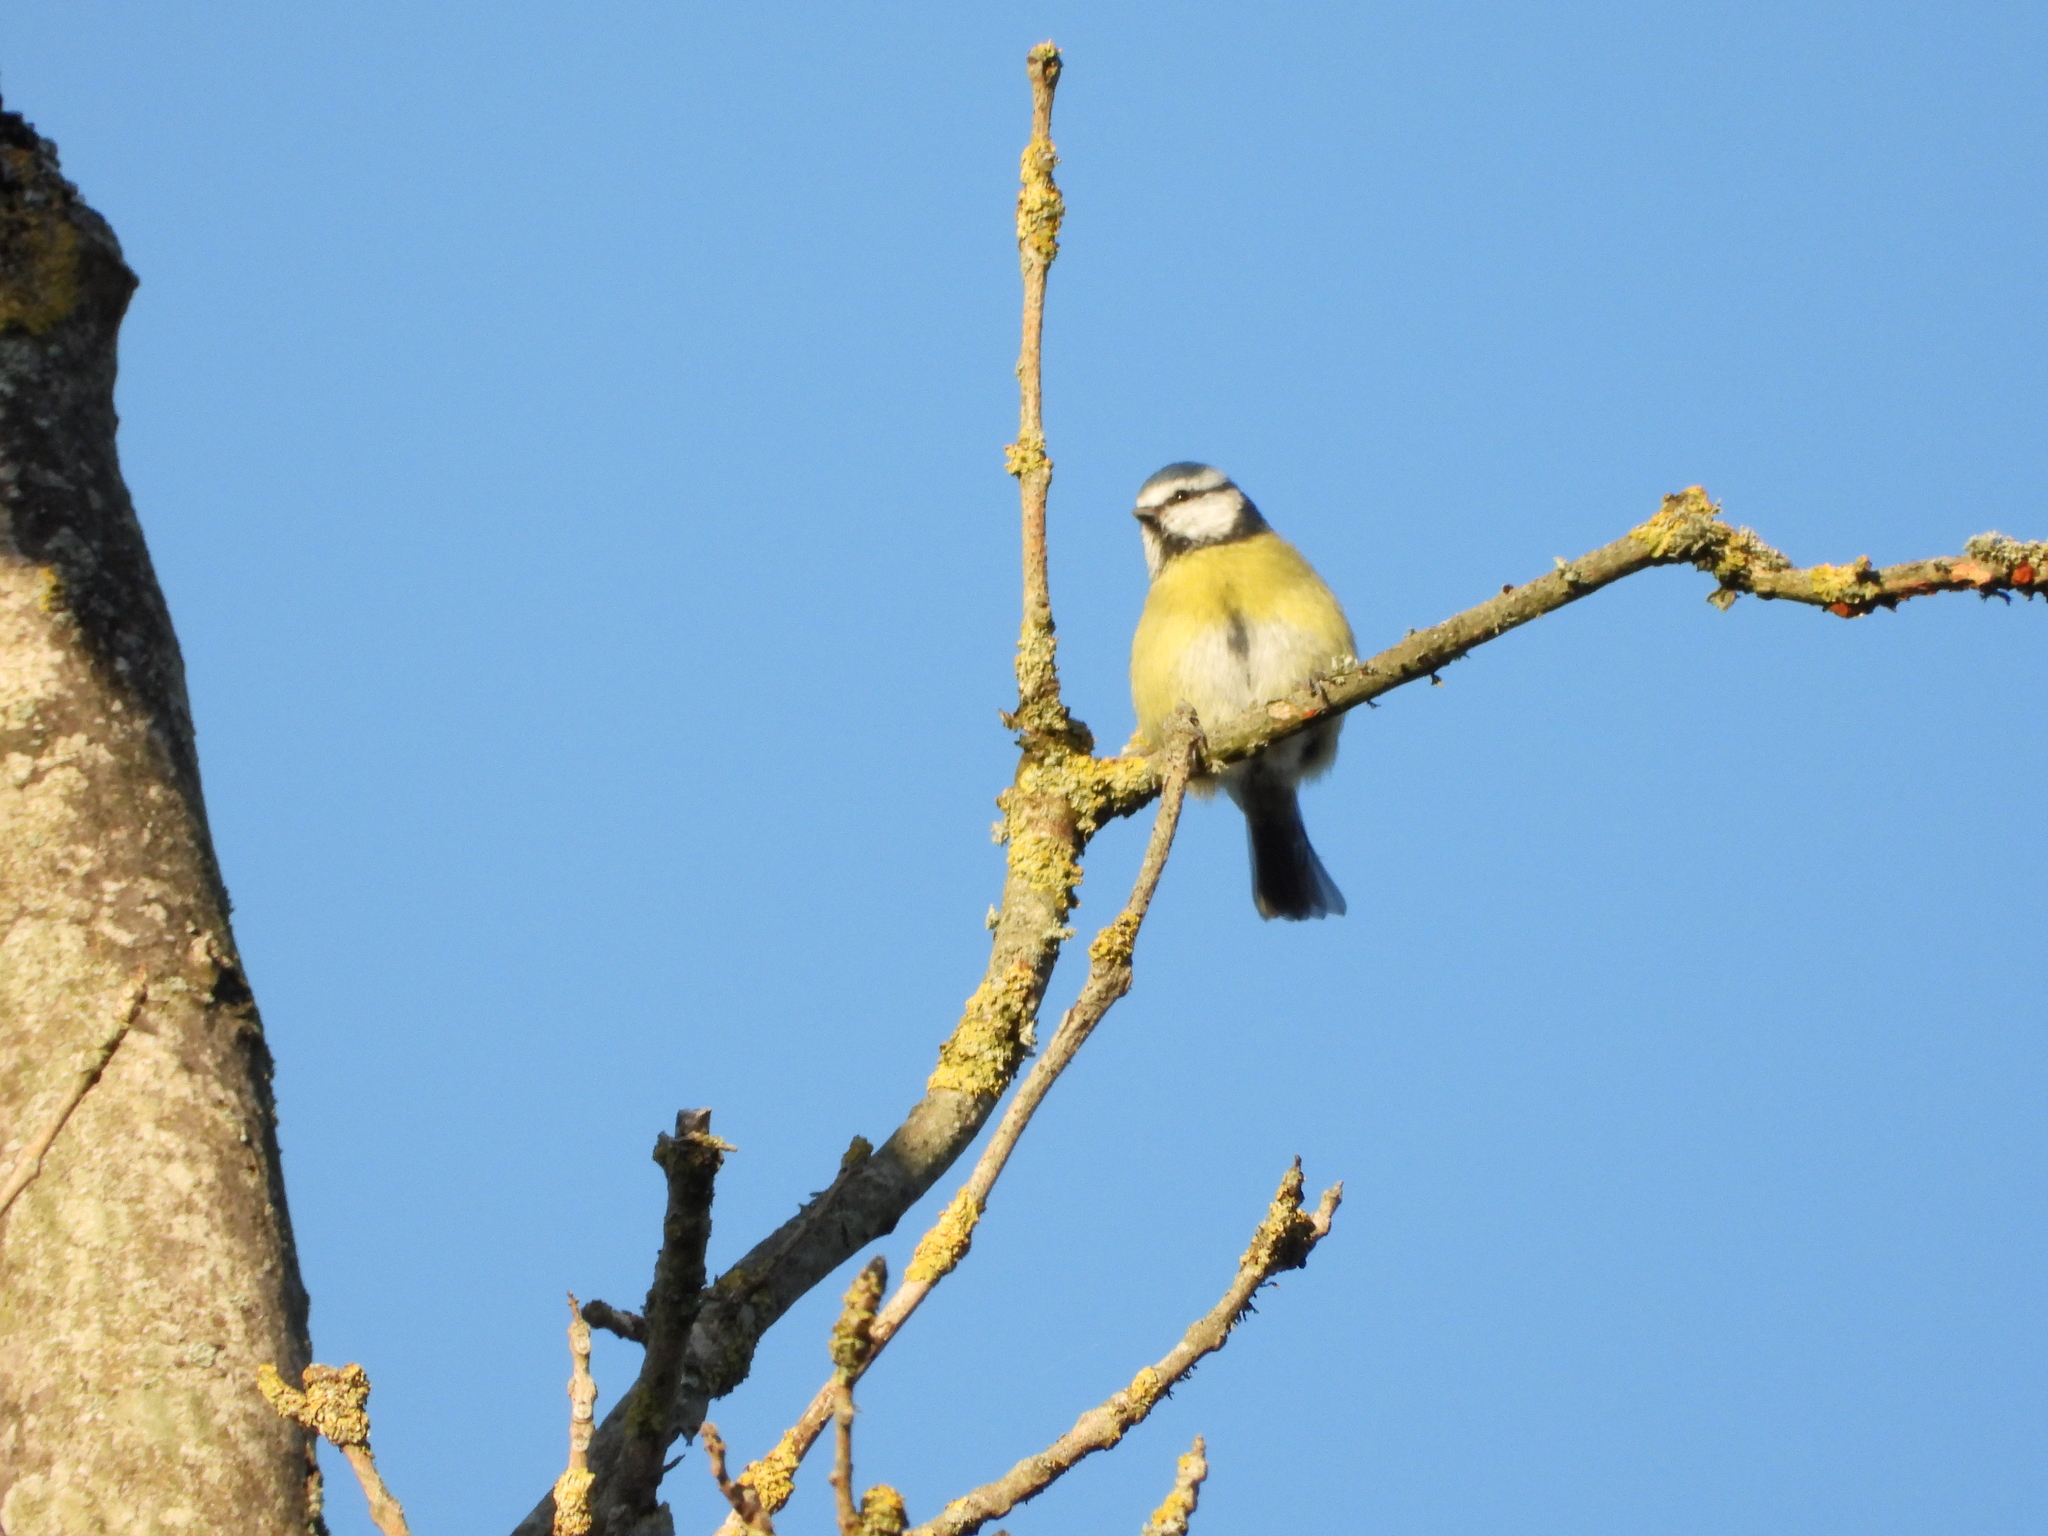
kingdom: Animalia
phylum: Chordata
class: Aves
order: Passeriformes
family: Paridae
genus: Cyanistes
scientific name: Cyanistes caeruleus
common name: Eurasian blue tit
